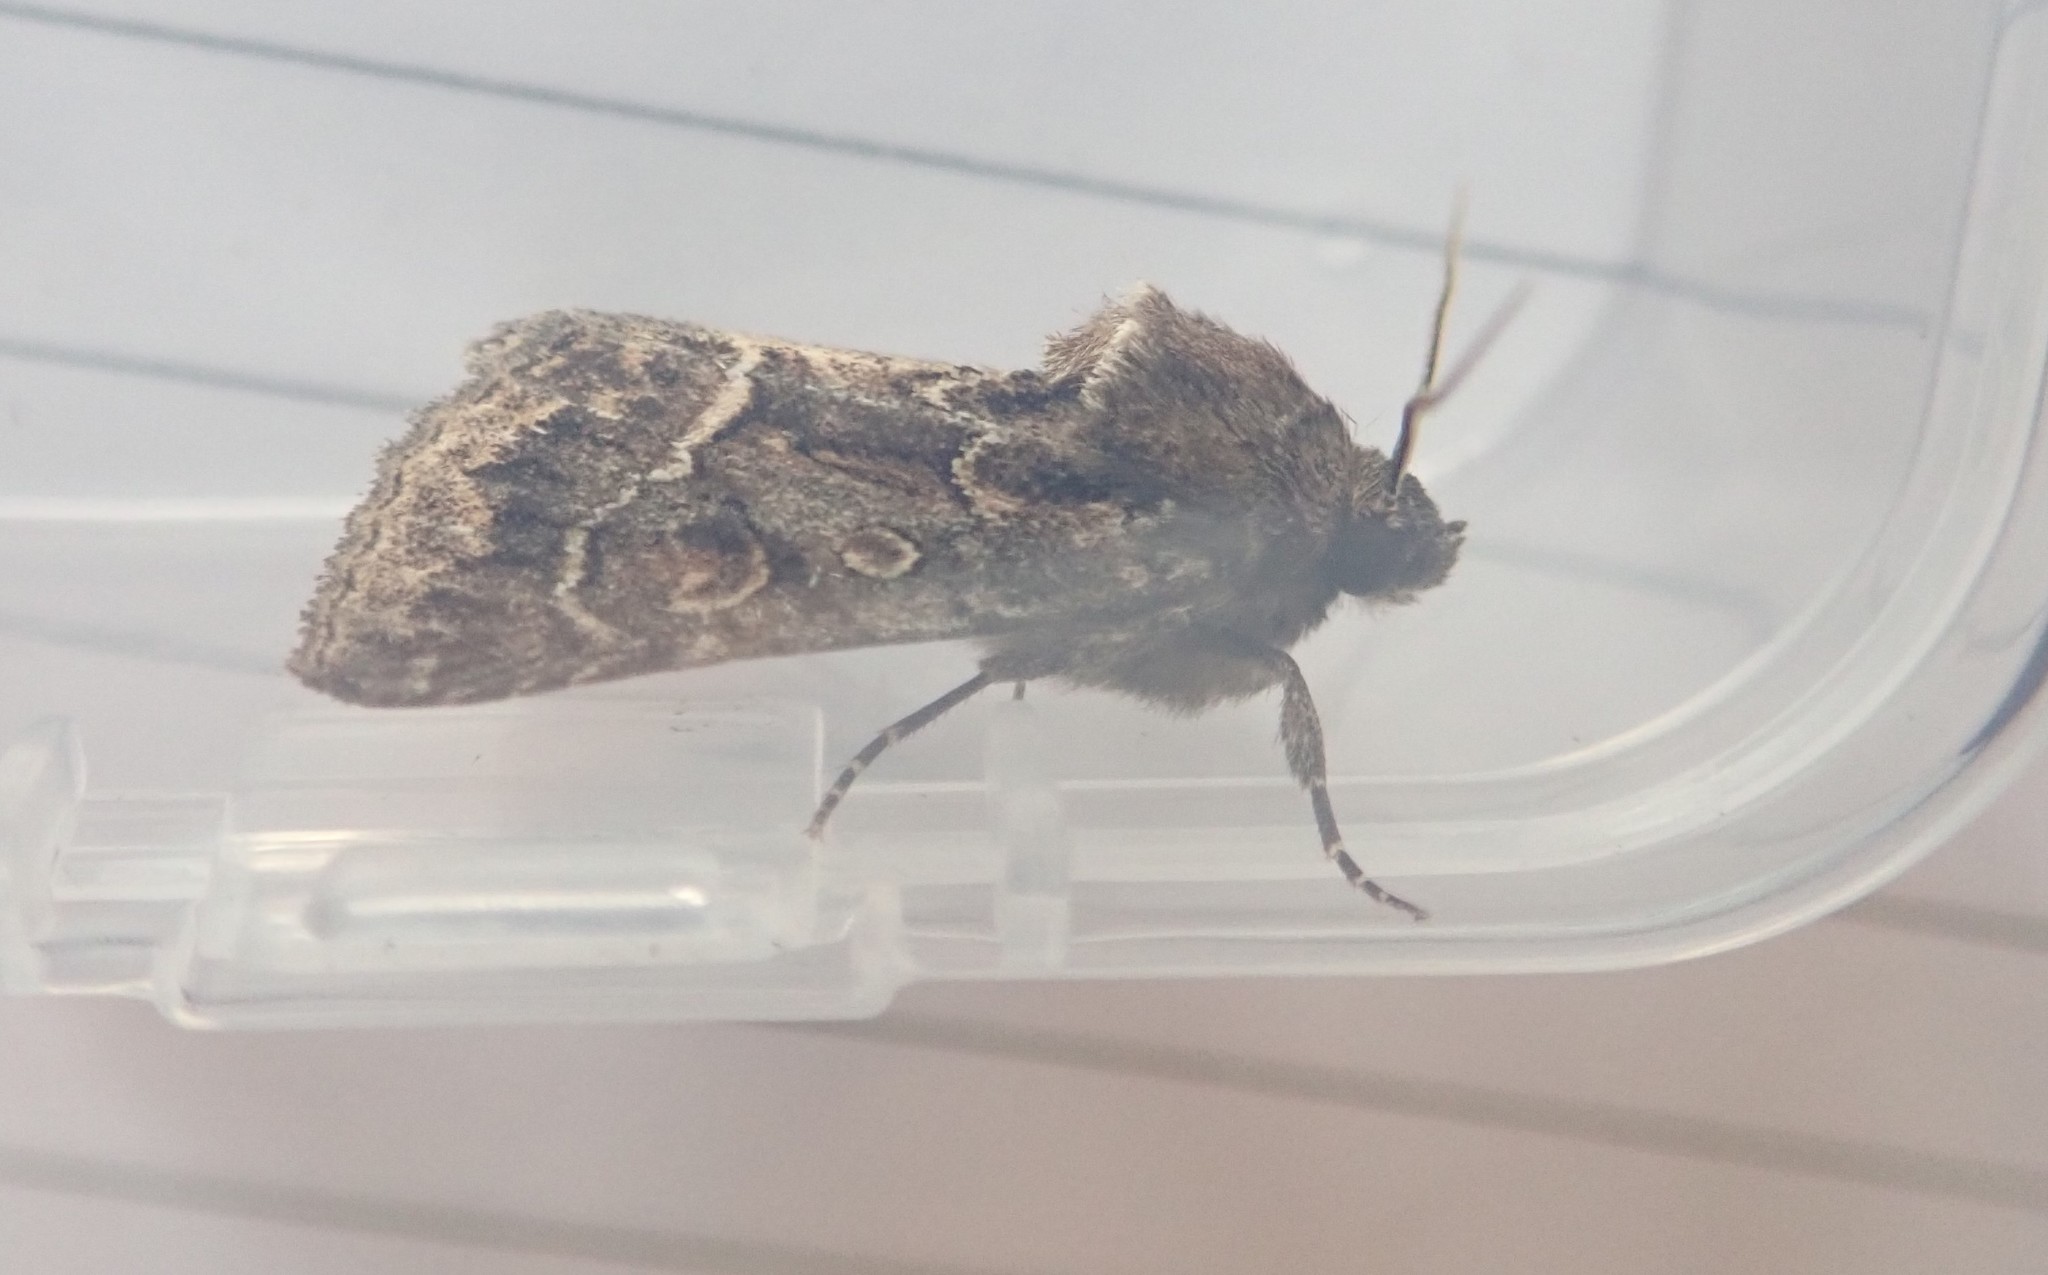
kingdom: Animalia
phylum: Arthropoda
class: Insecta
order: Lepidoptera
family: Noctuidae
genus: Thalpophila
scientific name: Thalpophila matura
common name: Straw underwing
